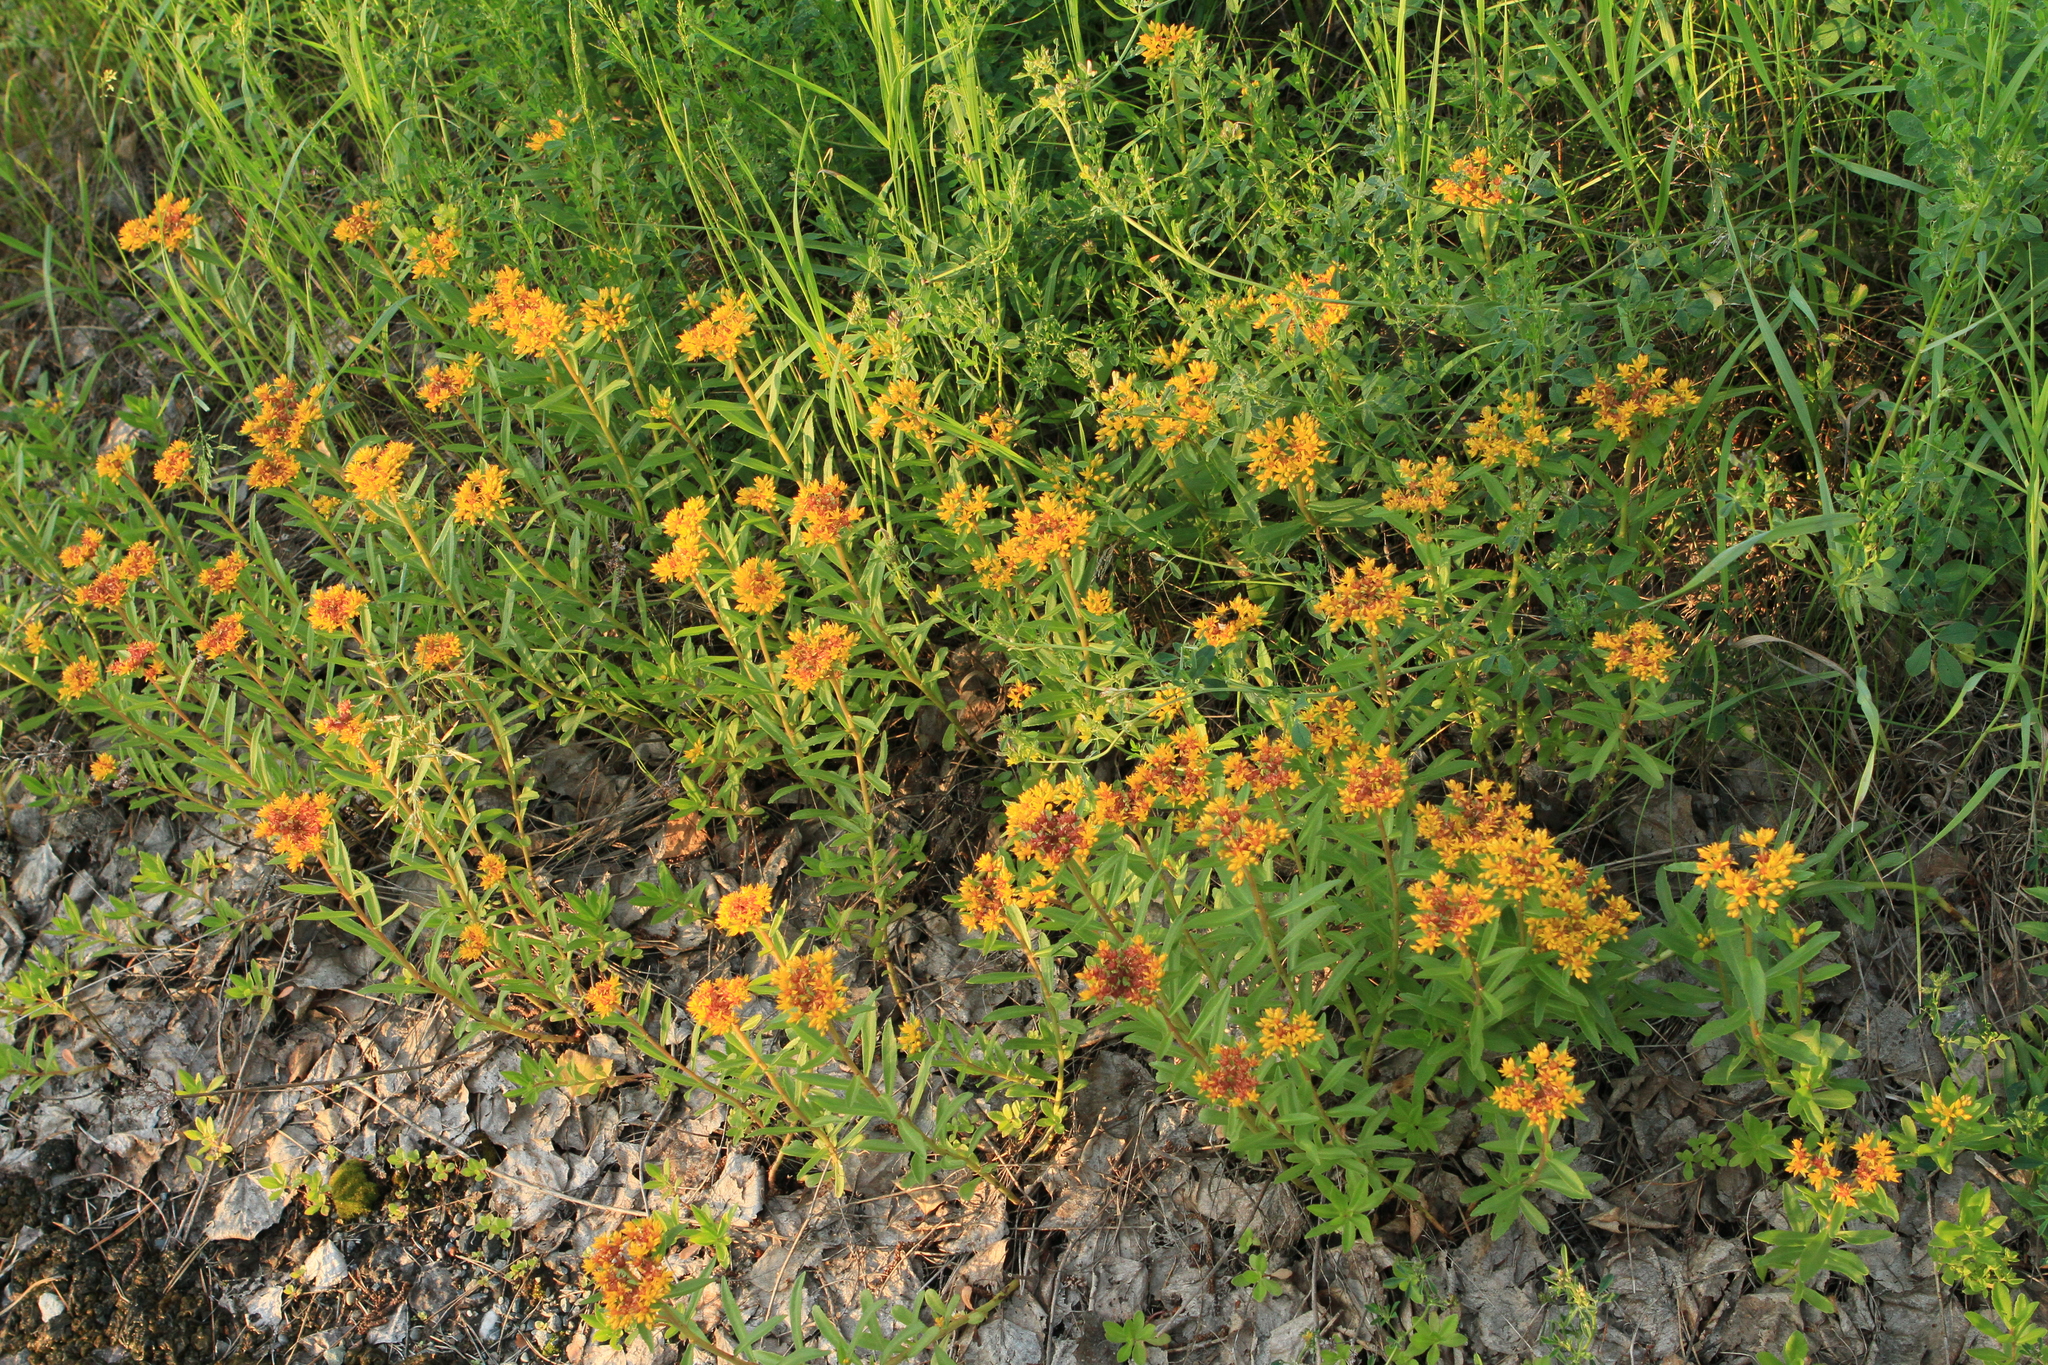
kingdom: Plantae
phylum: Tracheophyta
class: Magnoliopsida
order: Saxifragales
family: Crassulaceae
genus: Phedimus
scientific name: Phedimus aizoon
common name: Orpin aizoon
